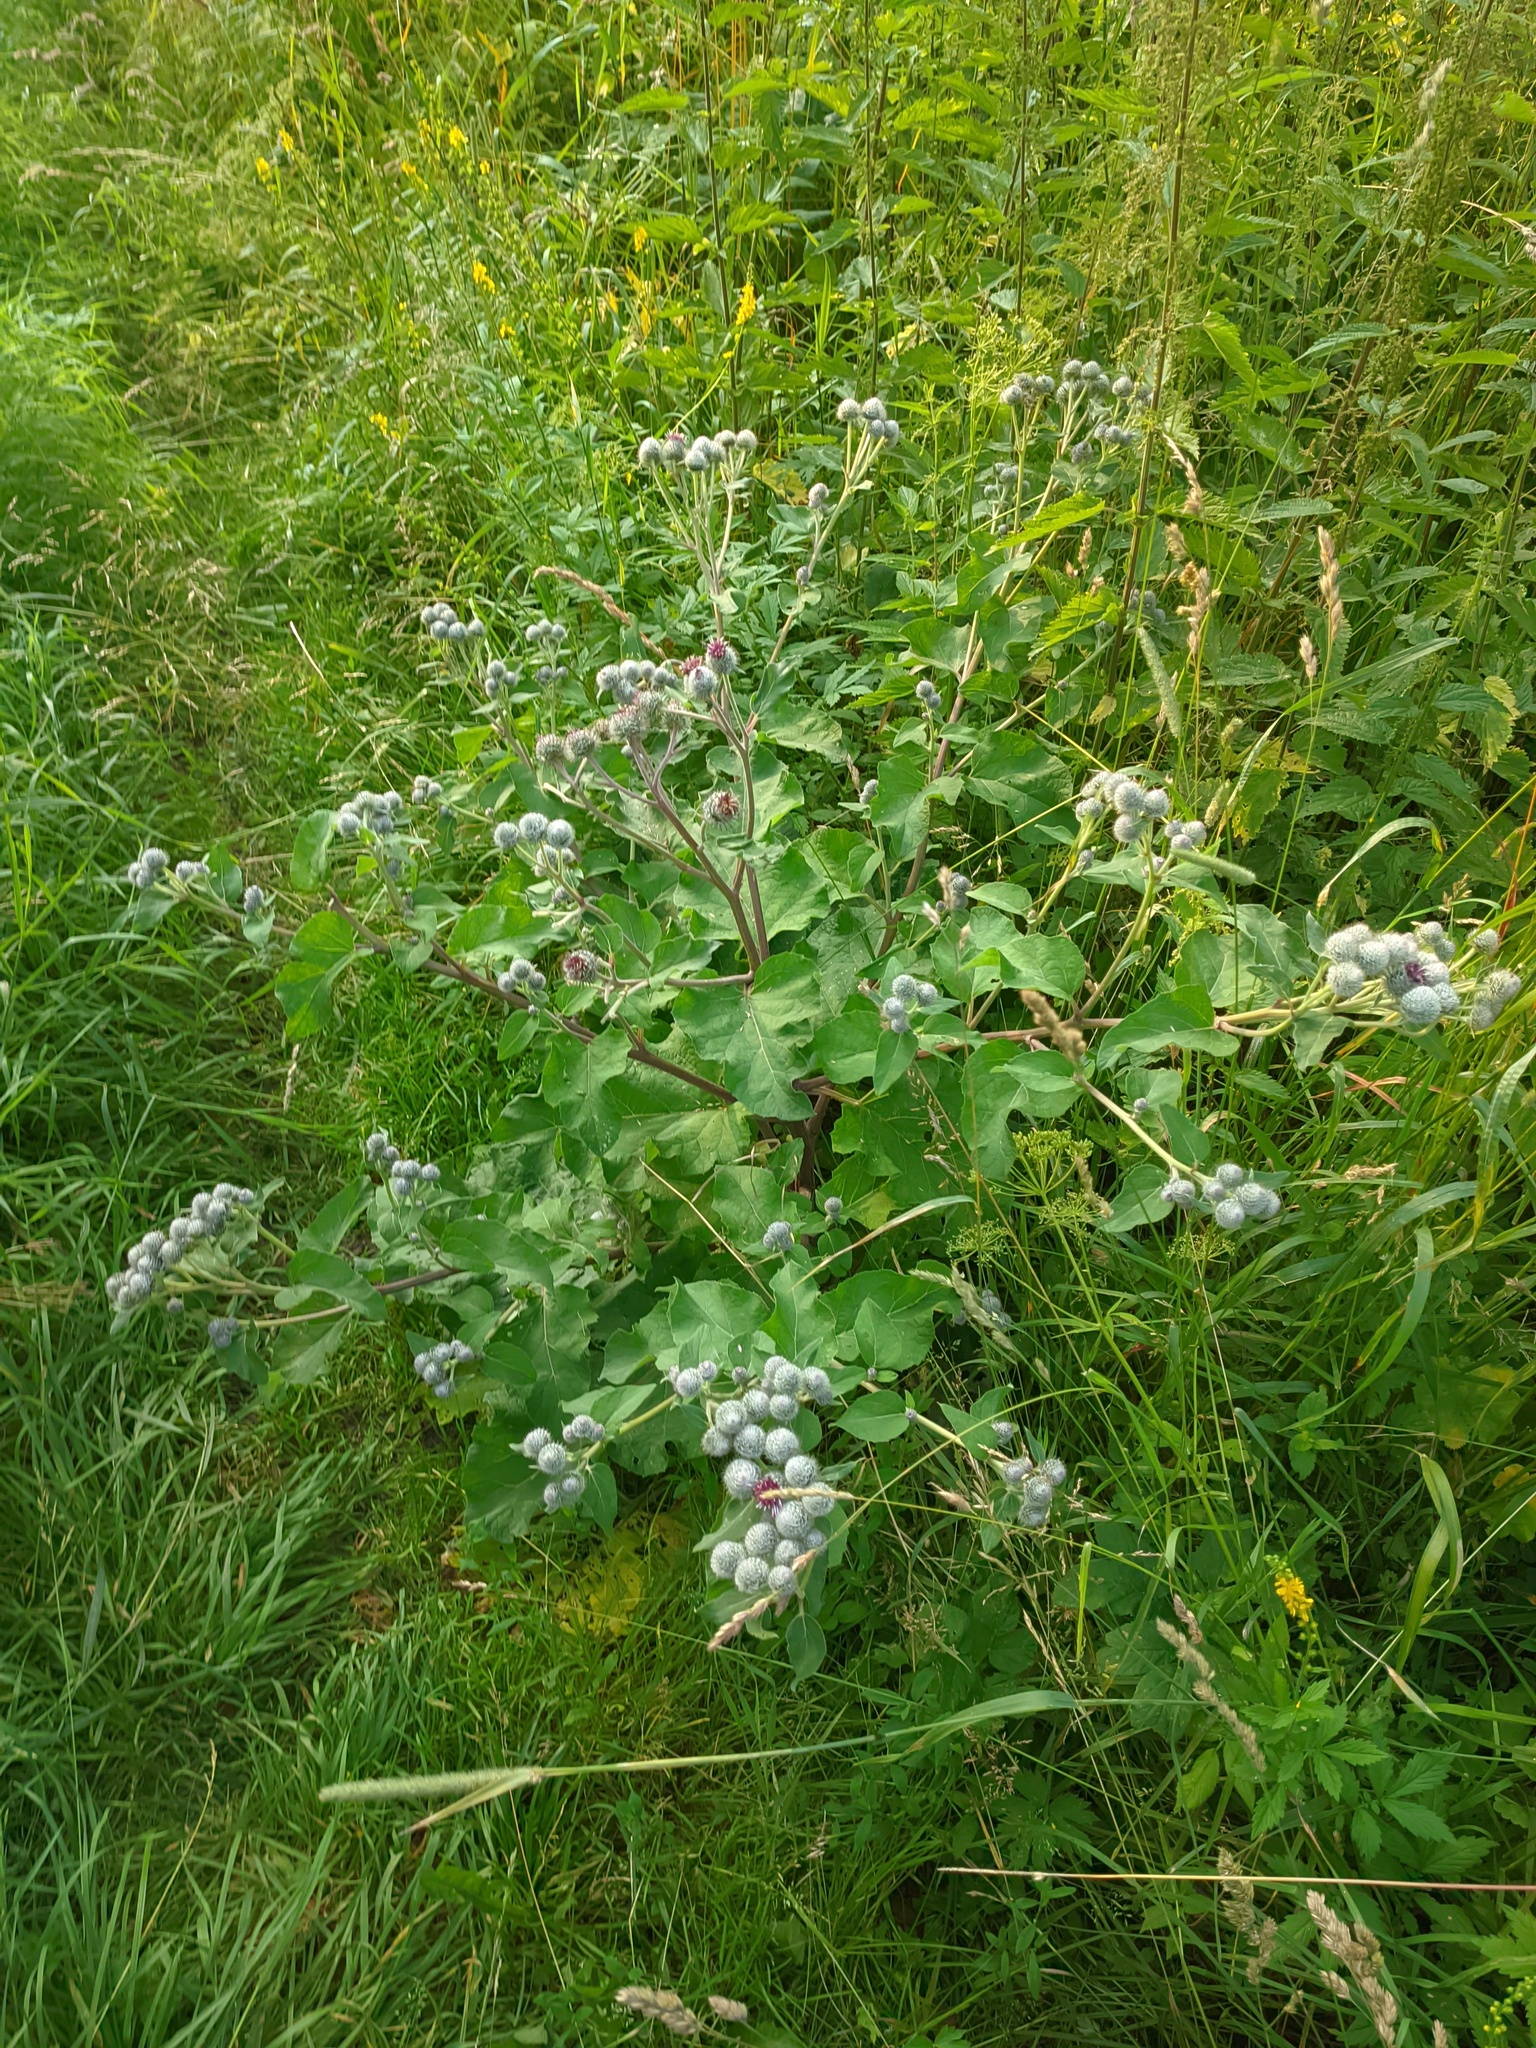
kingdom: Plantae
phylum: Tracheophyta
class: Magnoliopsida
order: Asterales
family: Asteraceae
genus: Arctium
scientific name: Arctium tomentosum
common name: Woolly burdock
